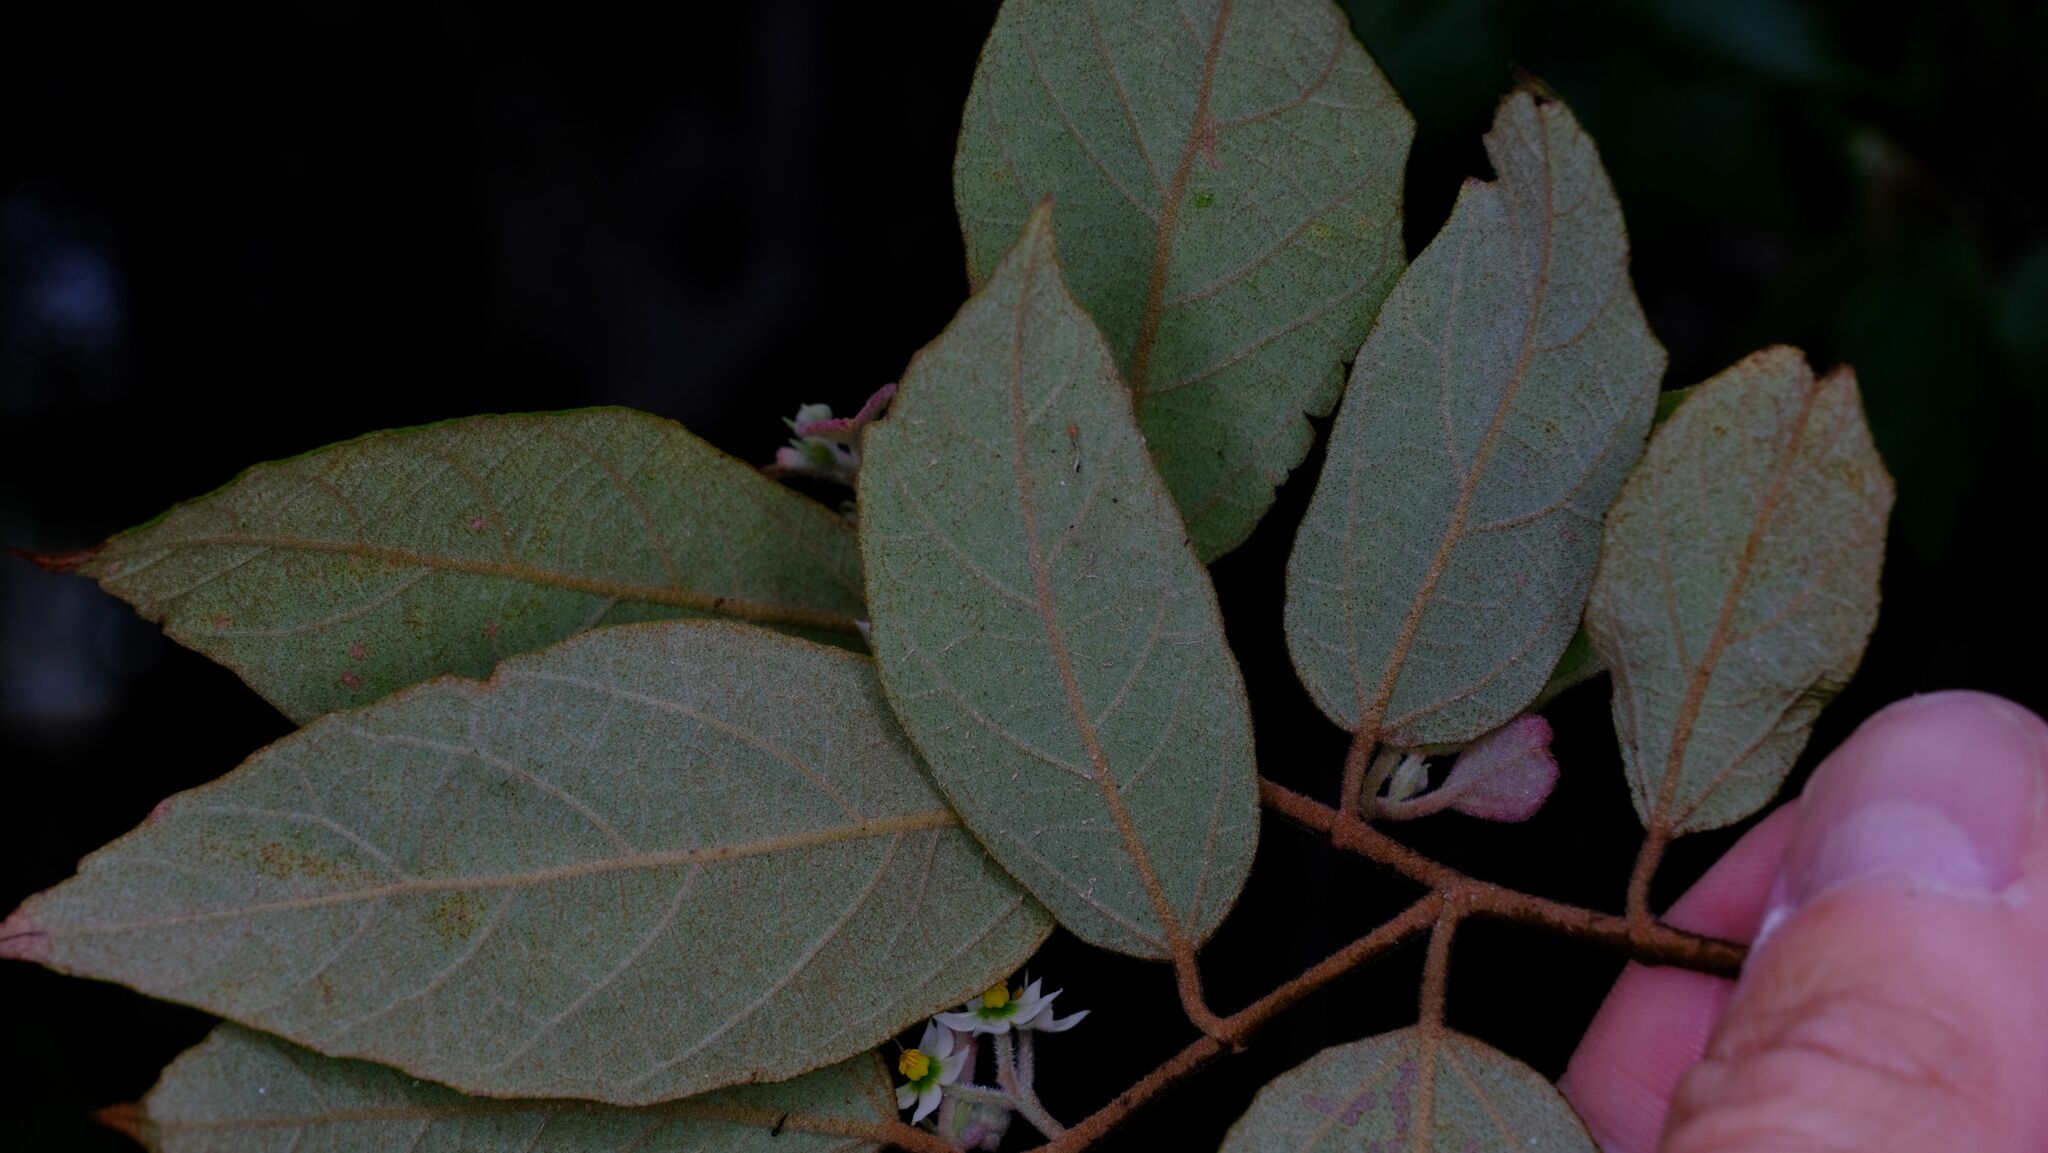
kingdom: Plantae
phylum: Tracheophyta
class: Magnoliopsida
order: Malvales
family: Malvaceae
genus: Commersonia
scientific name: Commersonia bartramia
